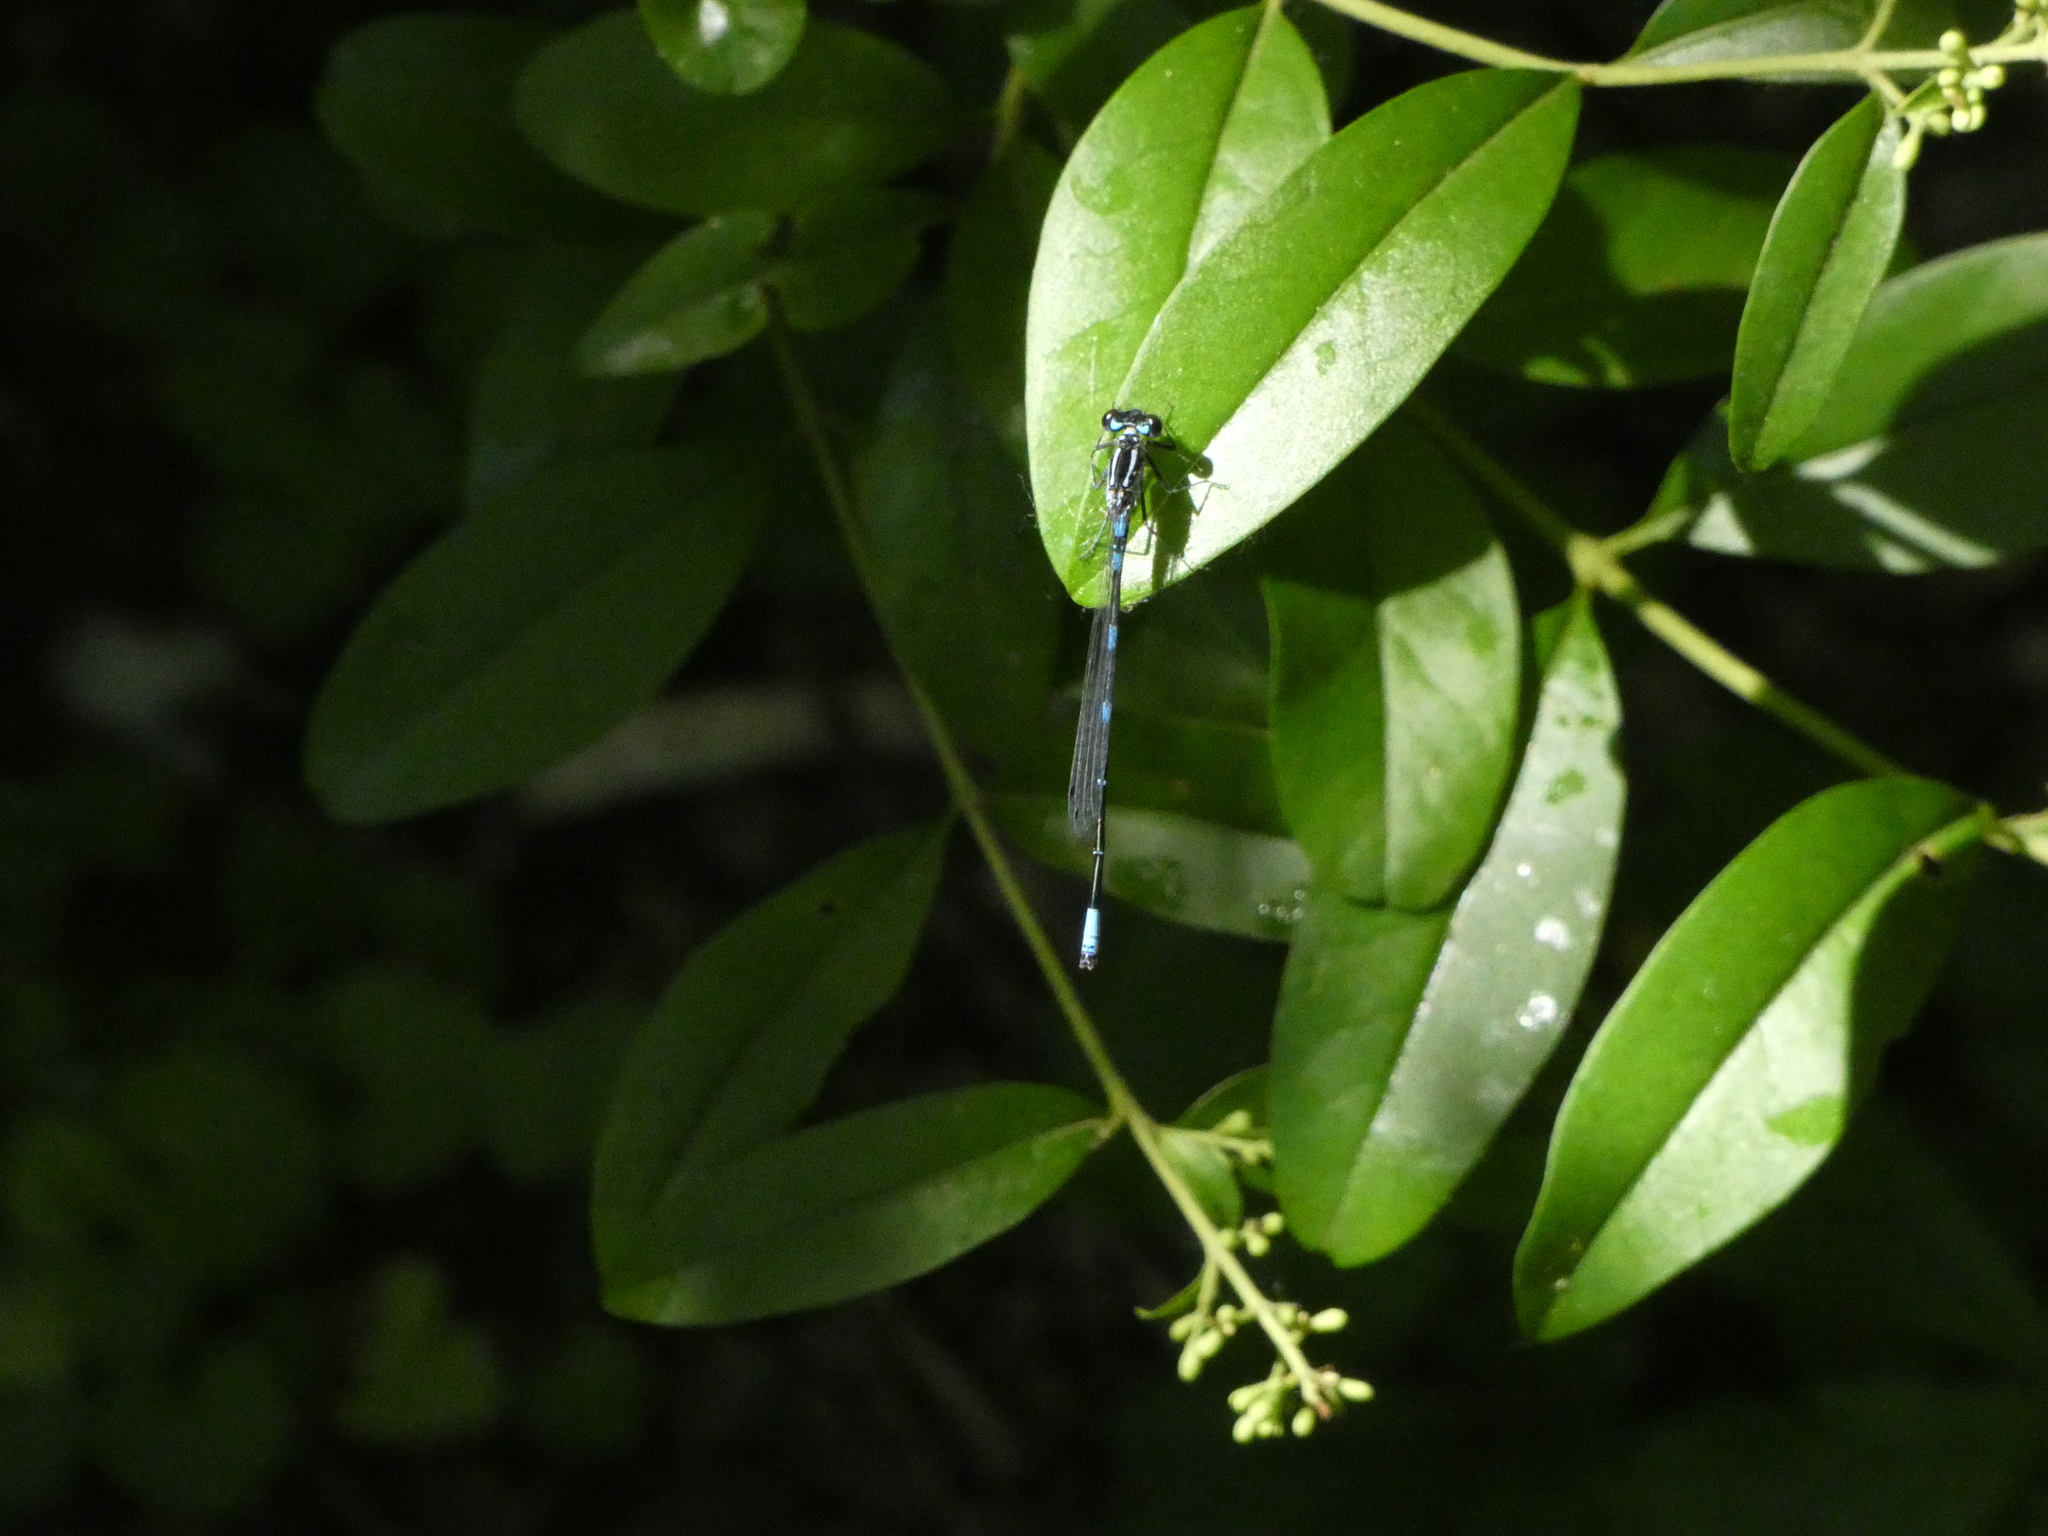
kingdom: Animalia
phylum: Arthropoda
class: Insecta
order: Odonata
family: Coenagrionidae
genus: Coenagrion
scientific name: Coenagrion pulchellum
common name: Variable bluet
